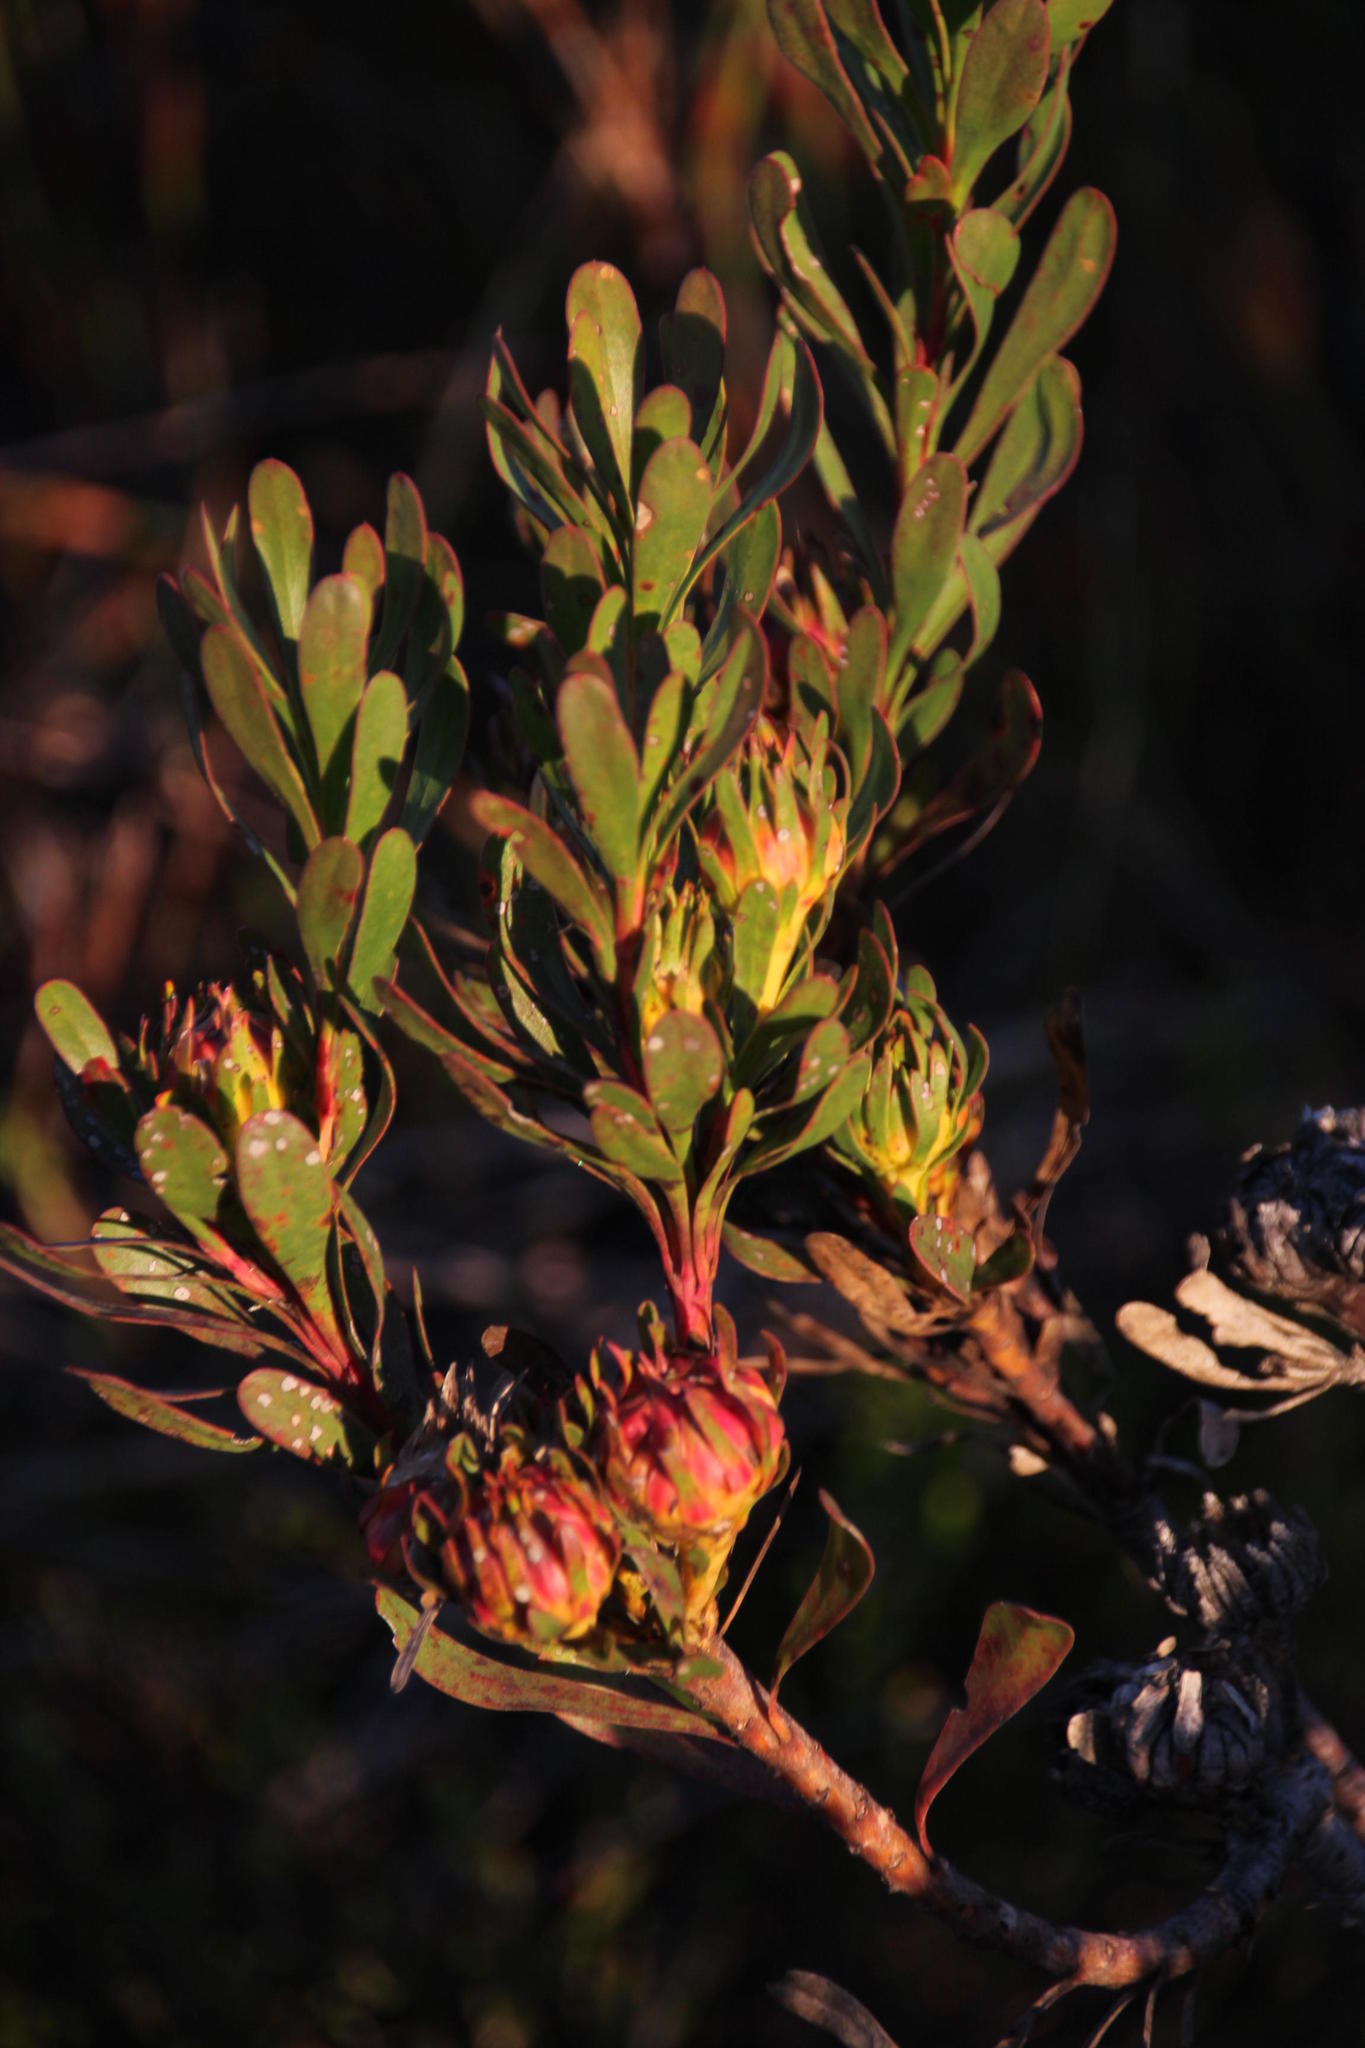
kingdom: Plantae
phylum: Tracheophyta
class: Magnoliopsida
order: Proteales
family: Proteaceae
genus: Aulax
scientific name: Aulax umbellata
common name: Broad-leaf featherbush
